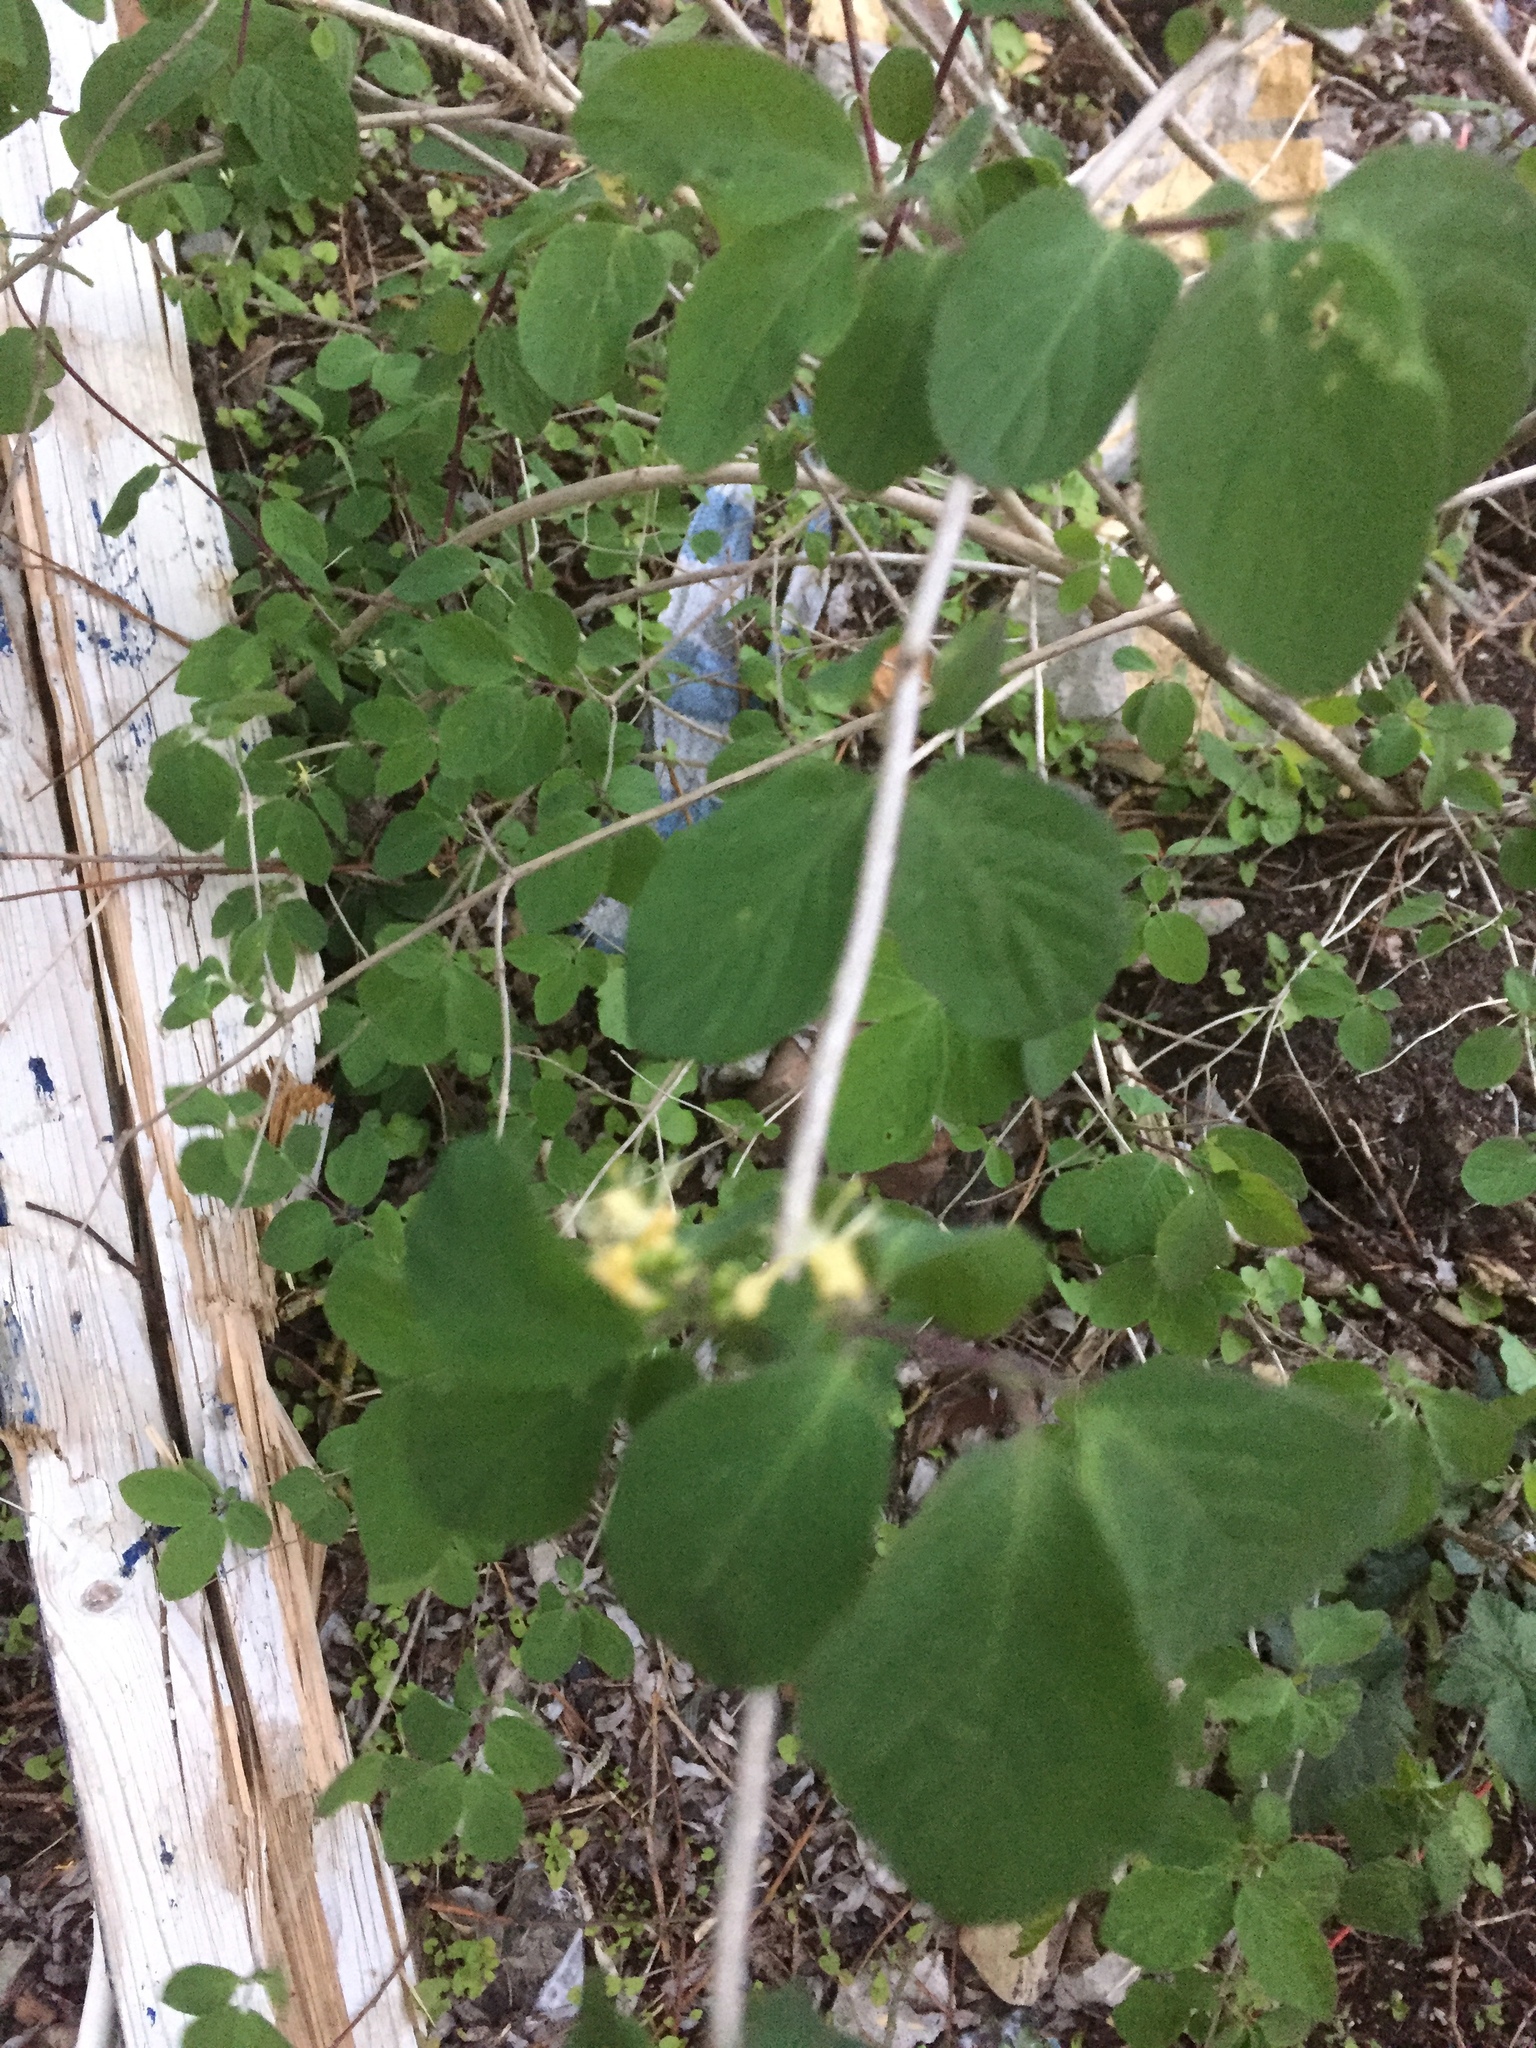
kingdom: Plantae
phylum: Tracheophyta
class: Magnoliopsida
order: Dipsacales
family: Caprifoliaceae
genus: Lonicera
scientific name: Lonicera xylosteum
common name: Fly honeysuckle
